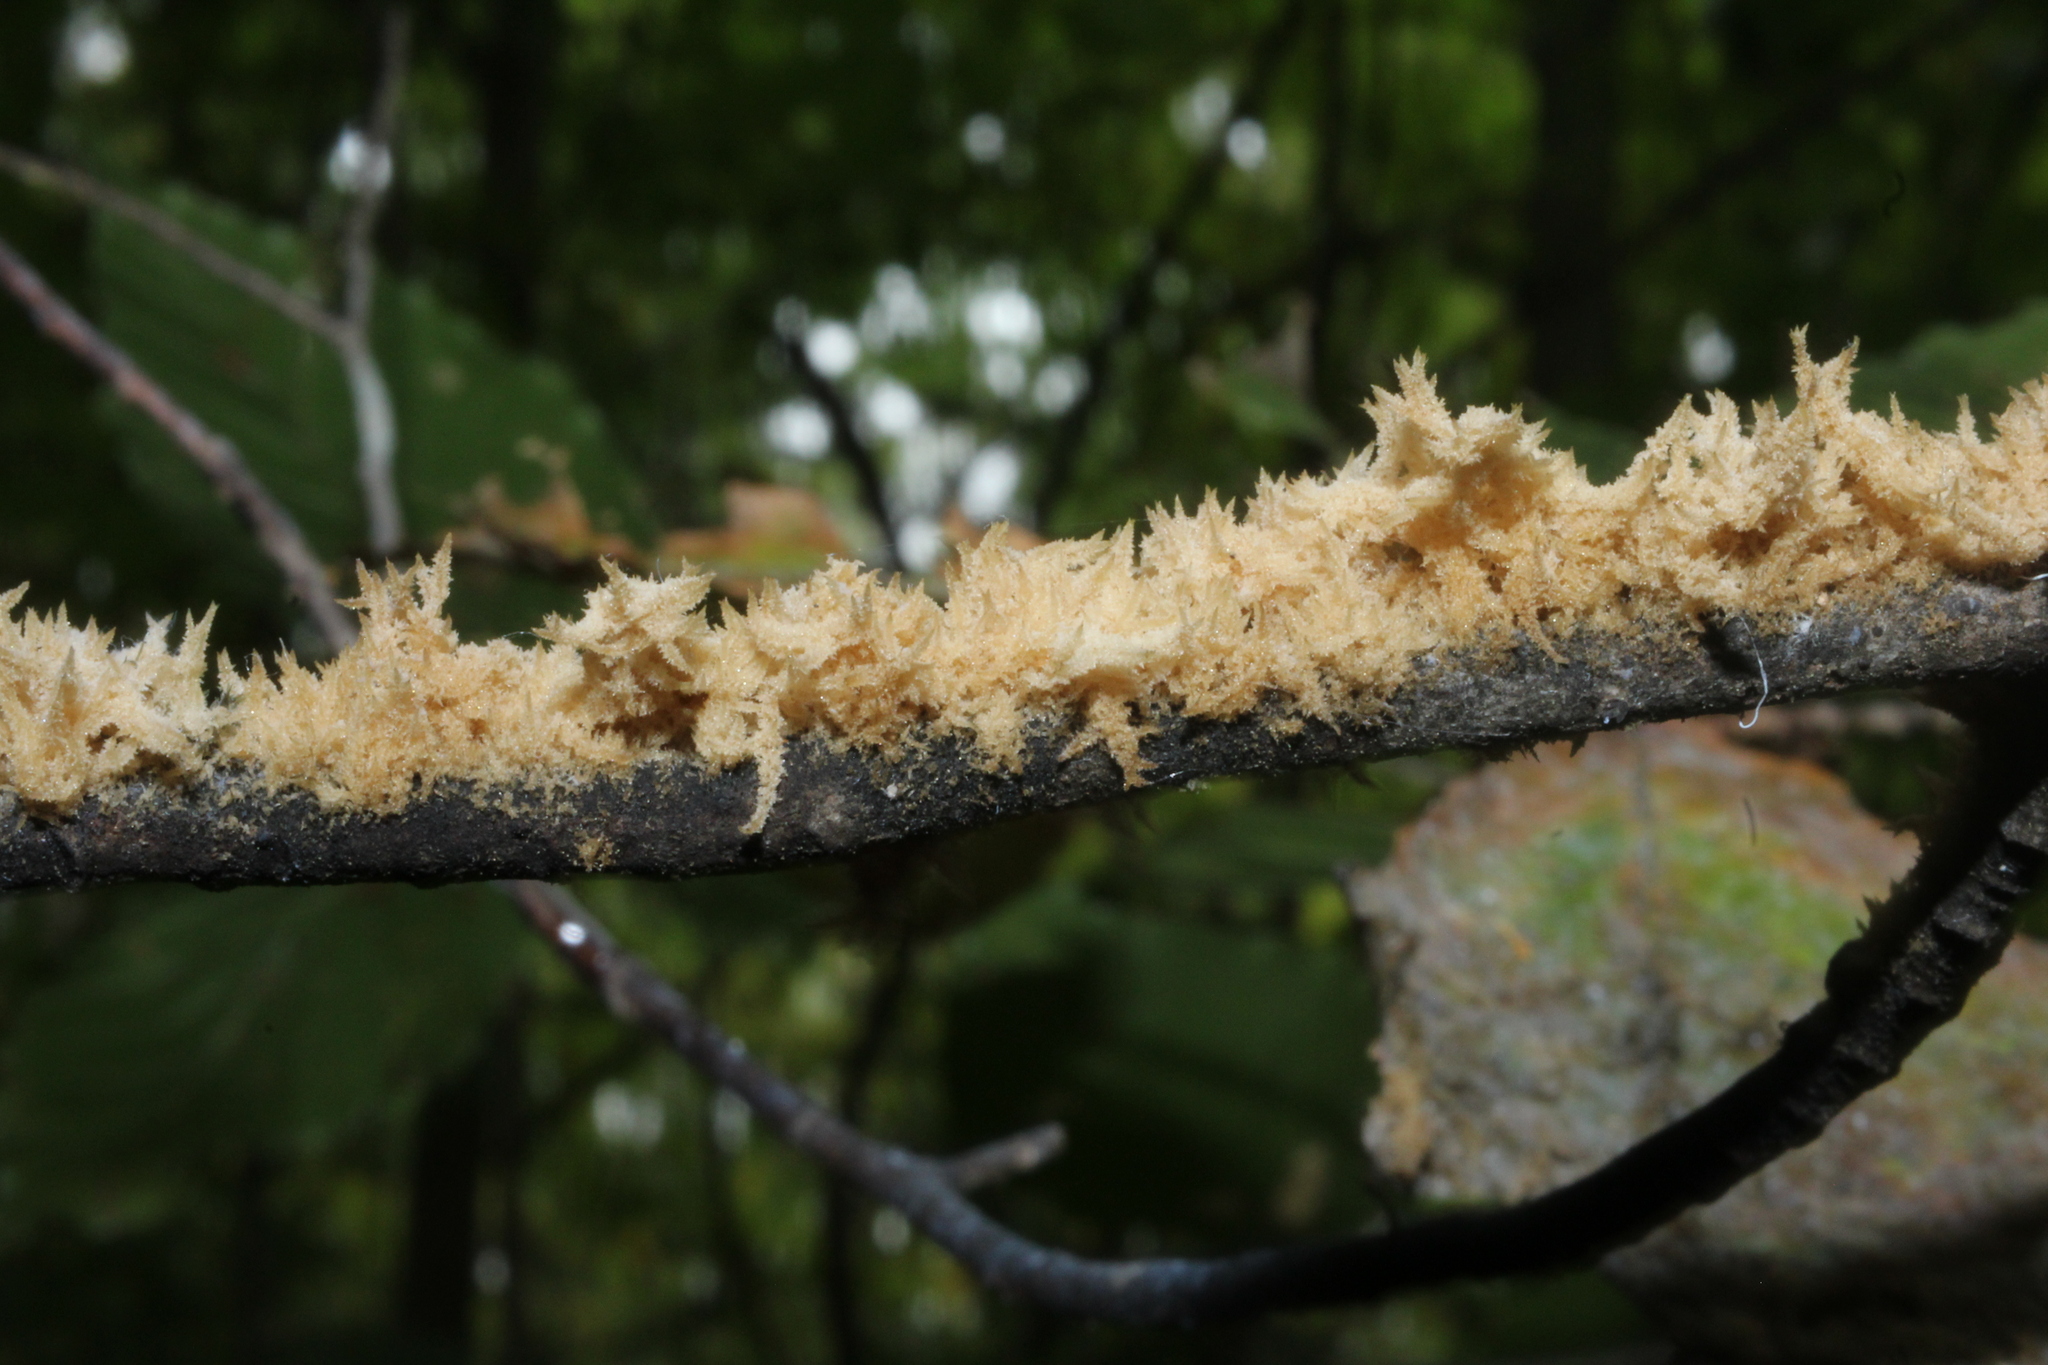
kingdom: Fungi
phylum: Ascomycota
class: Dothideomycetes
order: Capnodiales
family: Capnodiaceae
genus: Scorias
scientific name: Scorias spongiosa
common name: Black sooty mold
